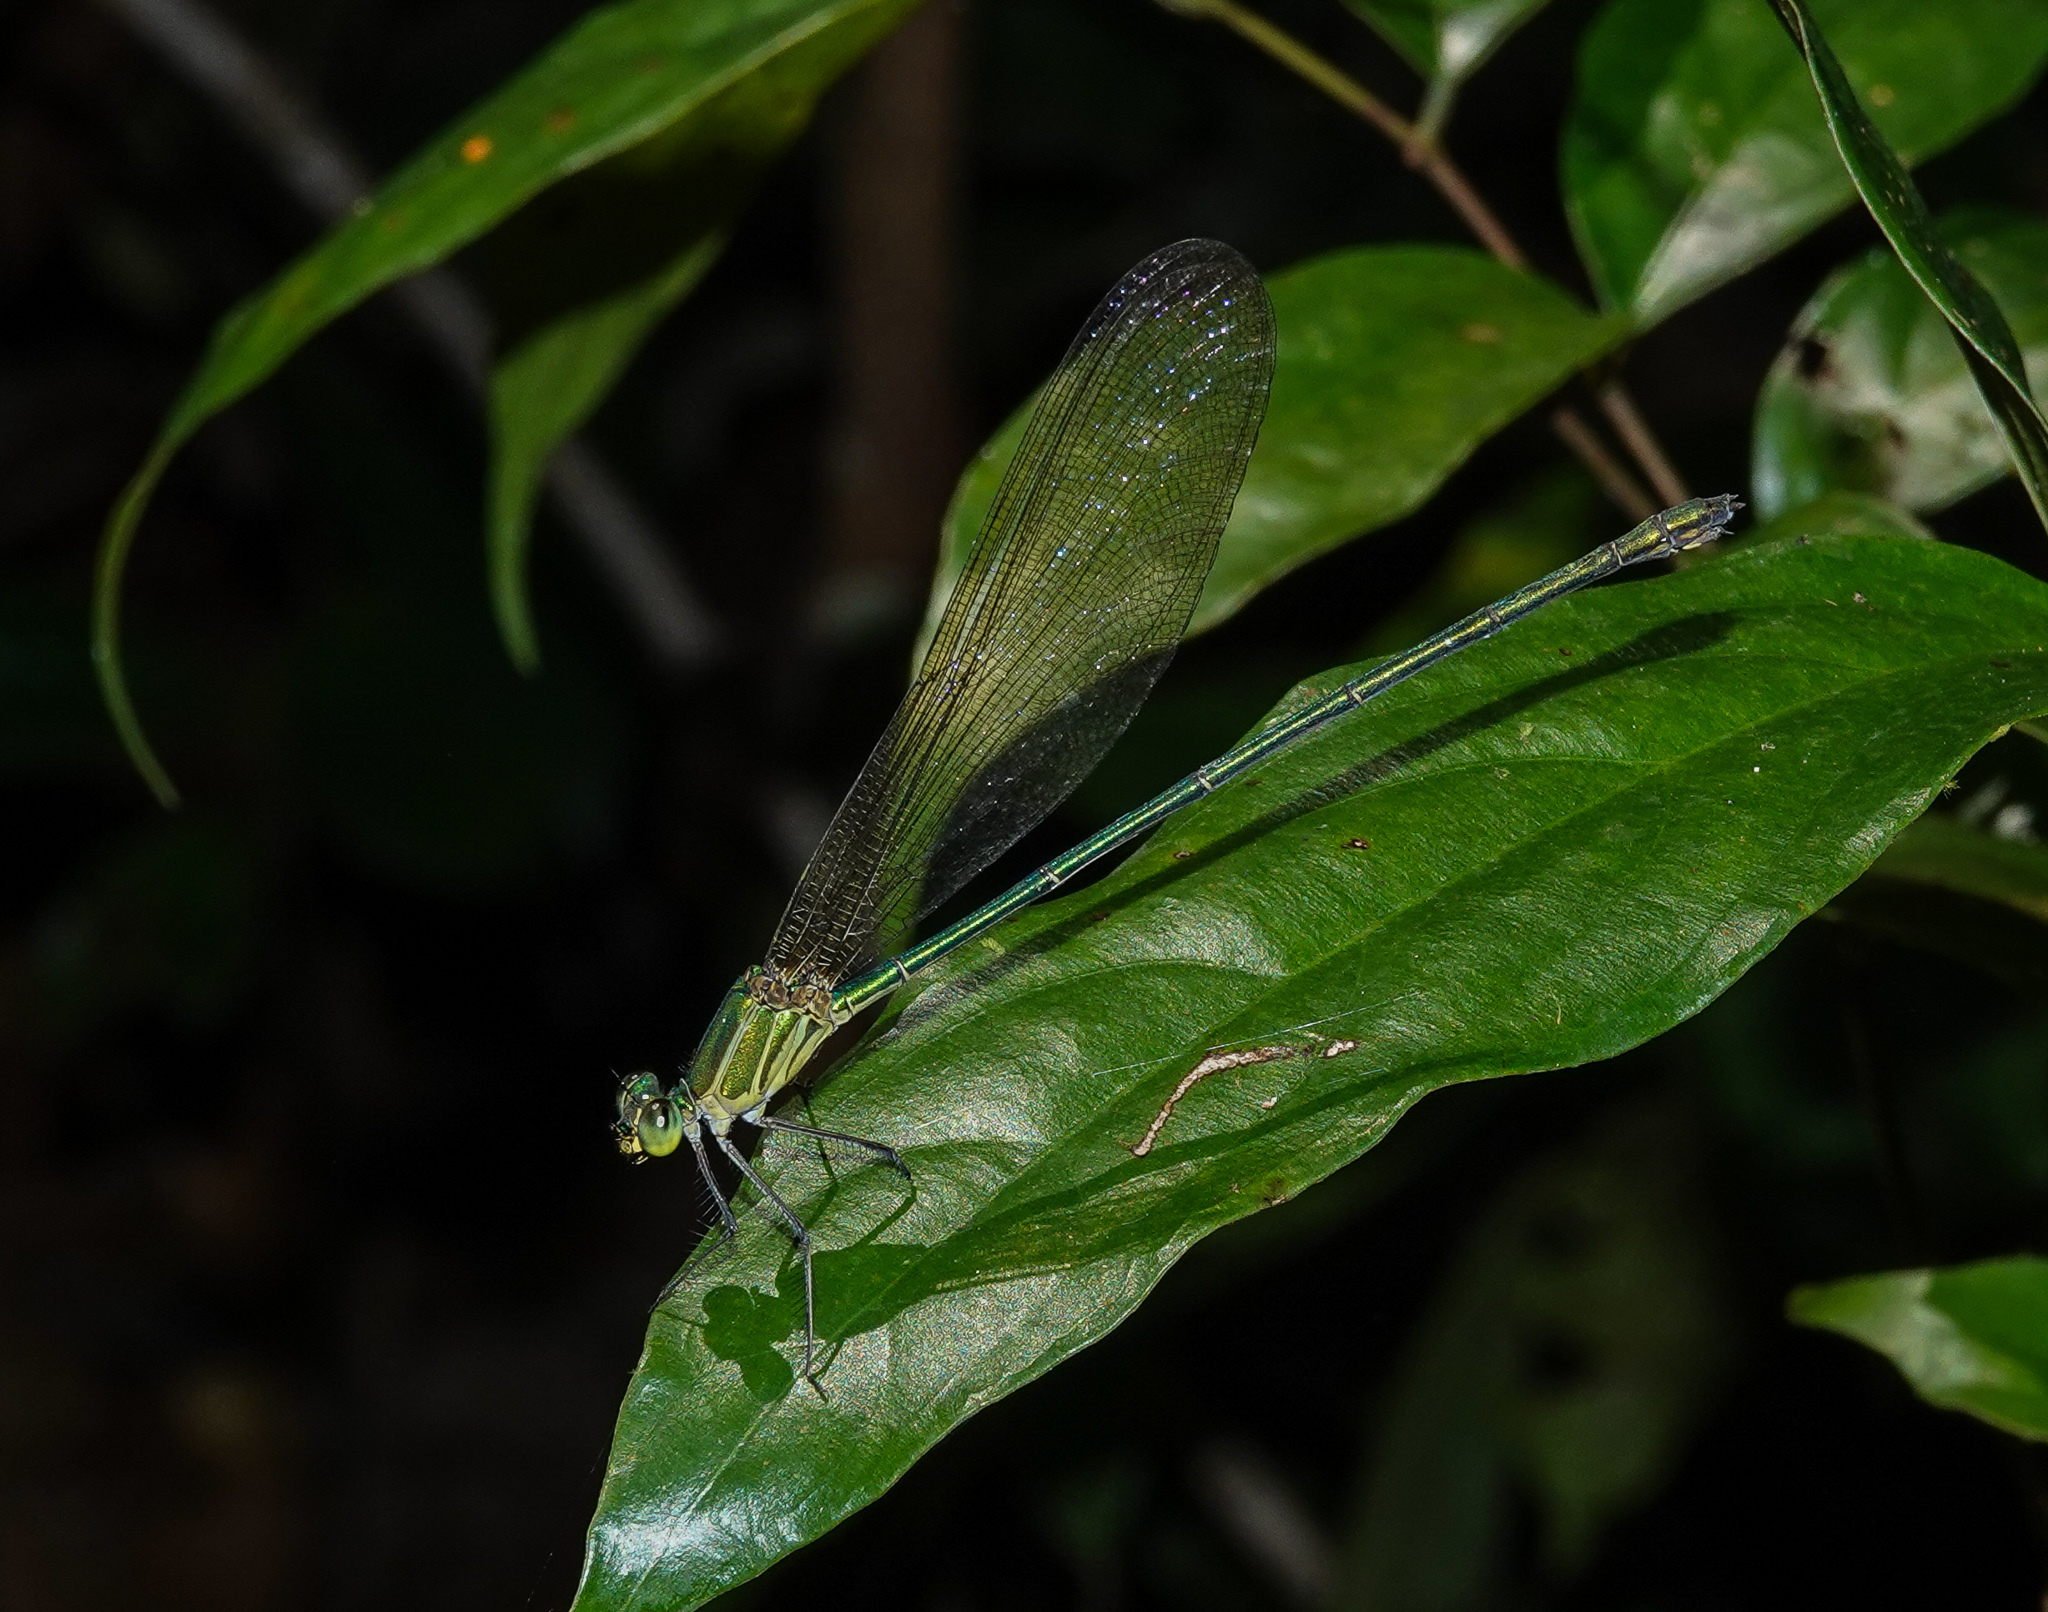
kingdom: Animalia
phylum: Arthropoda
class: Insecta
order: Odonata
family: Calopterygidae
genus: Vestalis
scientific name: Vestalis gracilis
